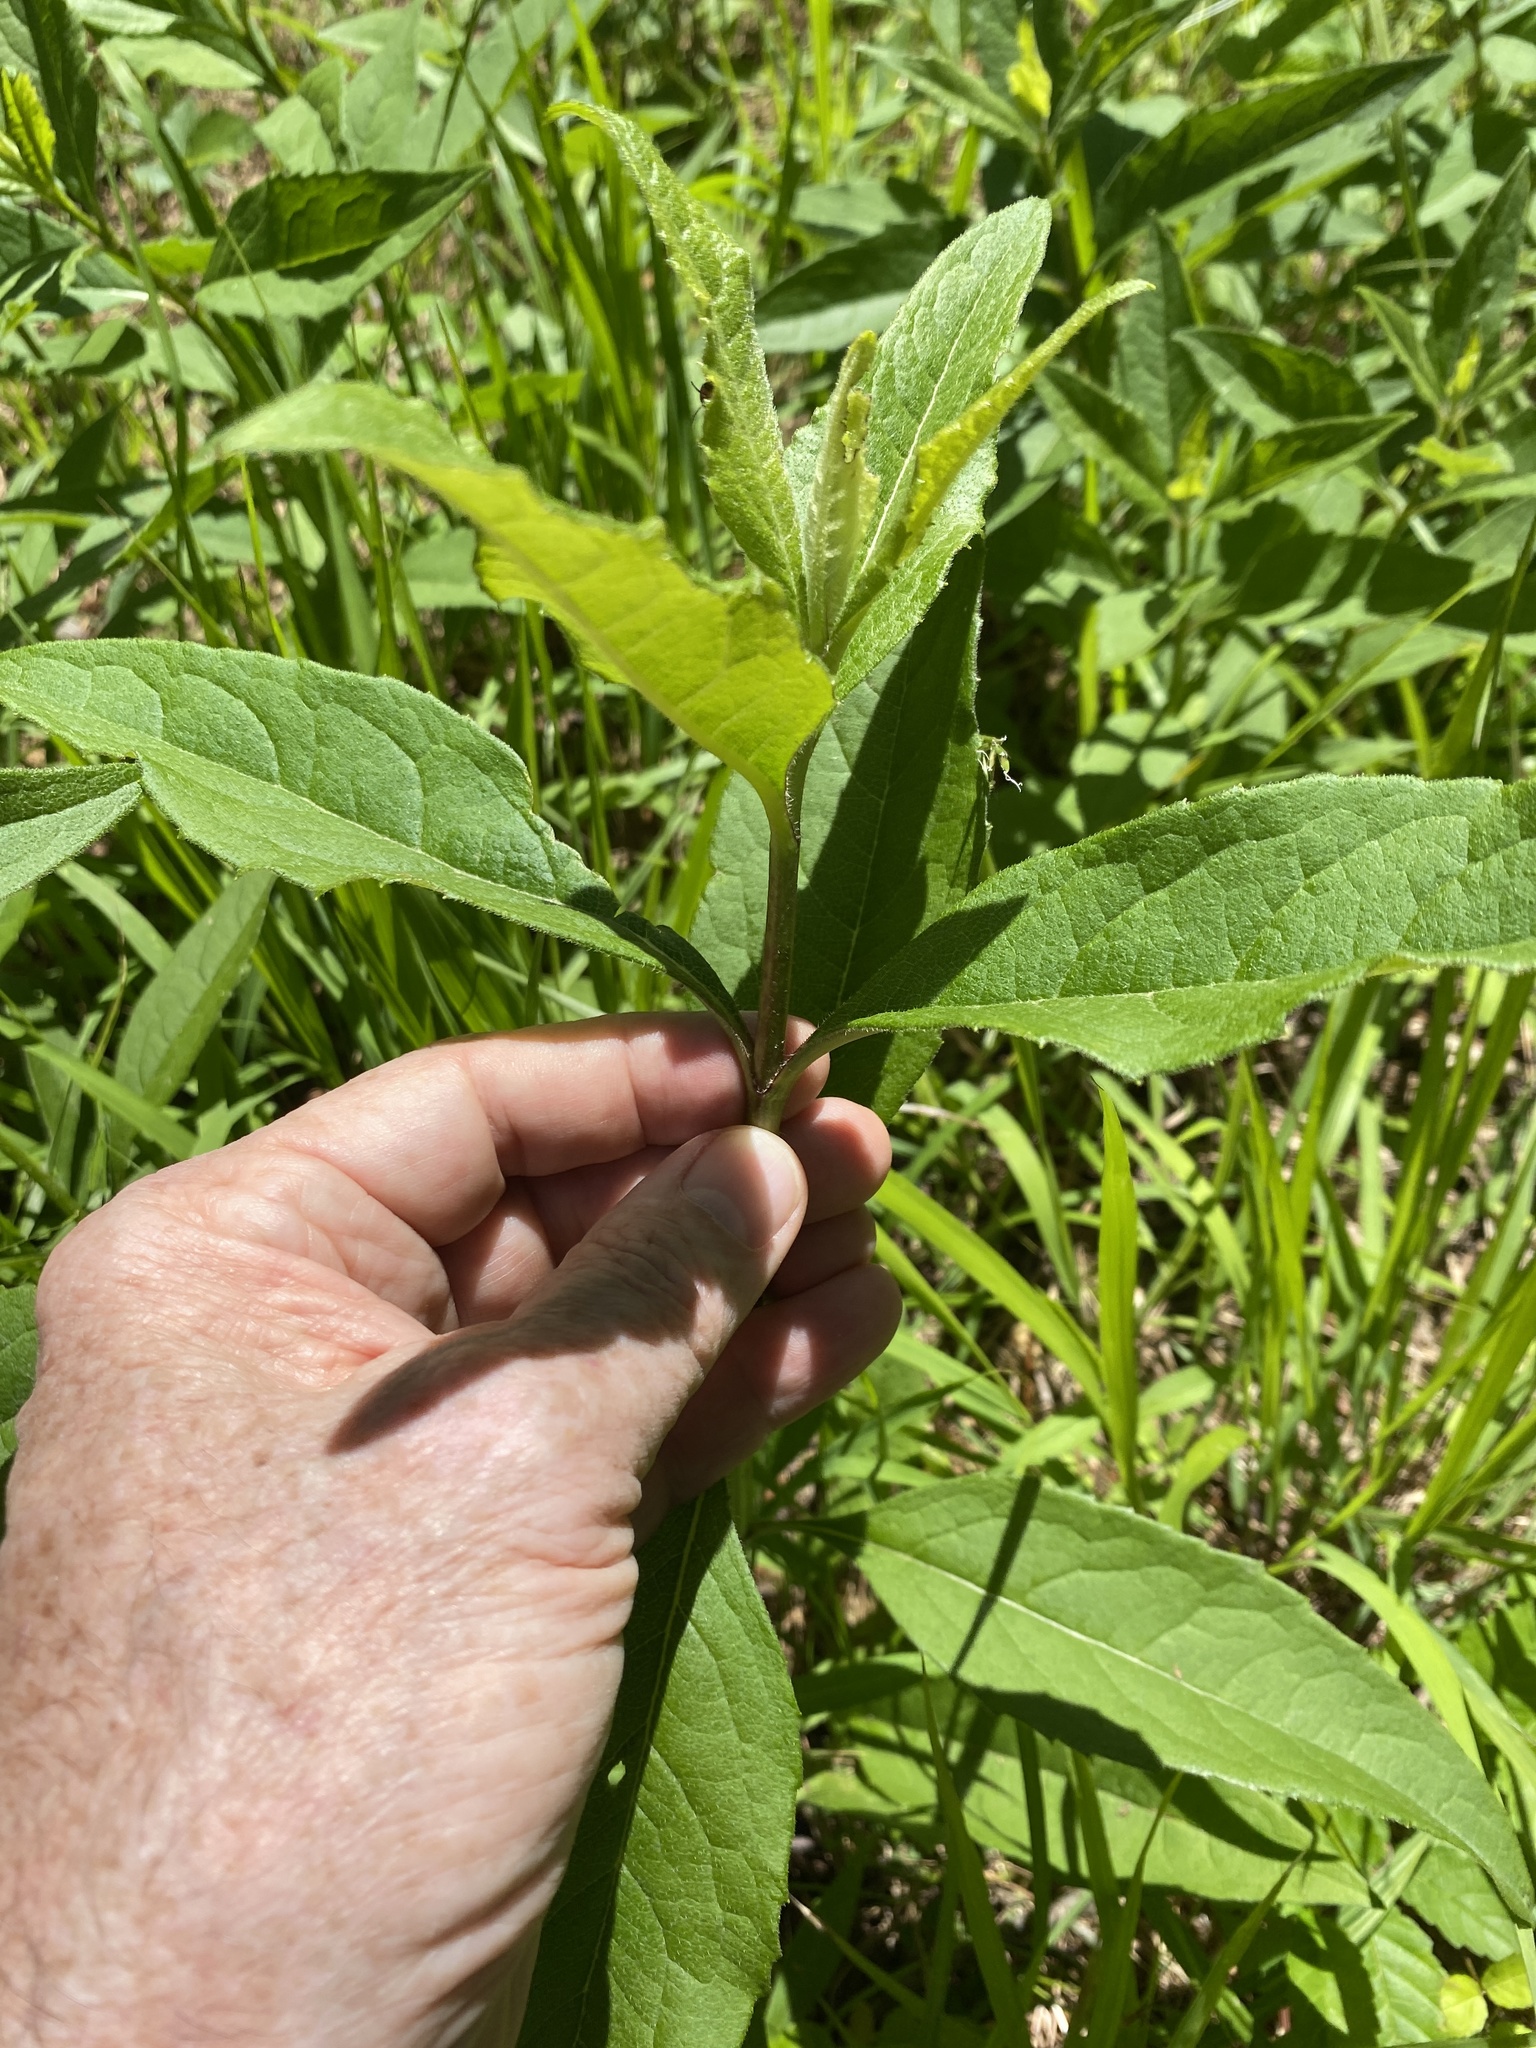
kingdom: Plantae
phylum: Tracheophyta
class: Magnoliopsida
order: Asterales
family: Asteraceae
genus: Silphium
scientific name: Silphium asteriscus
